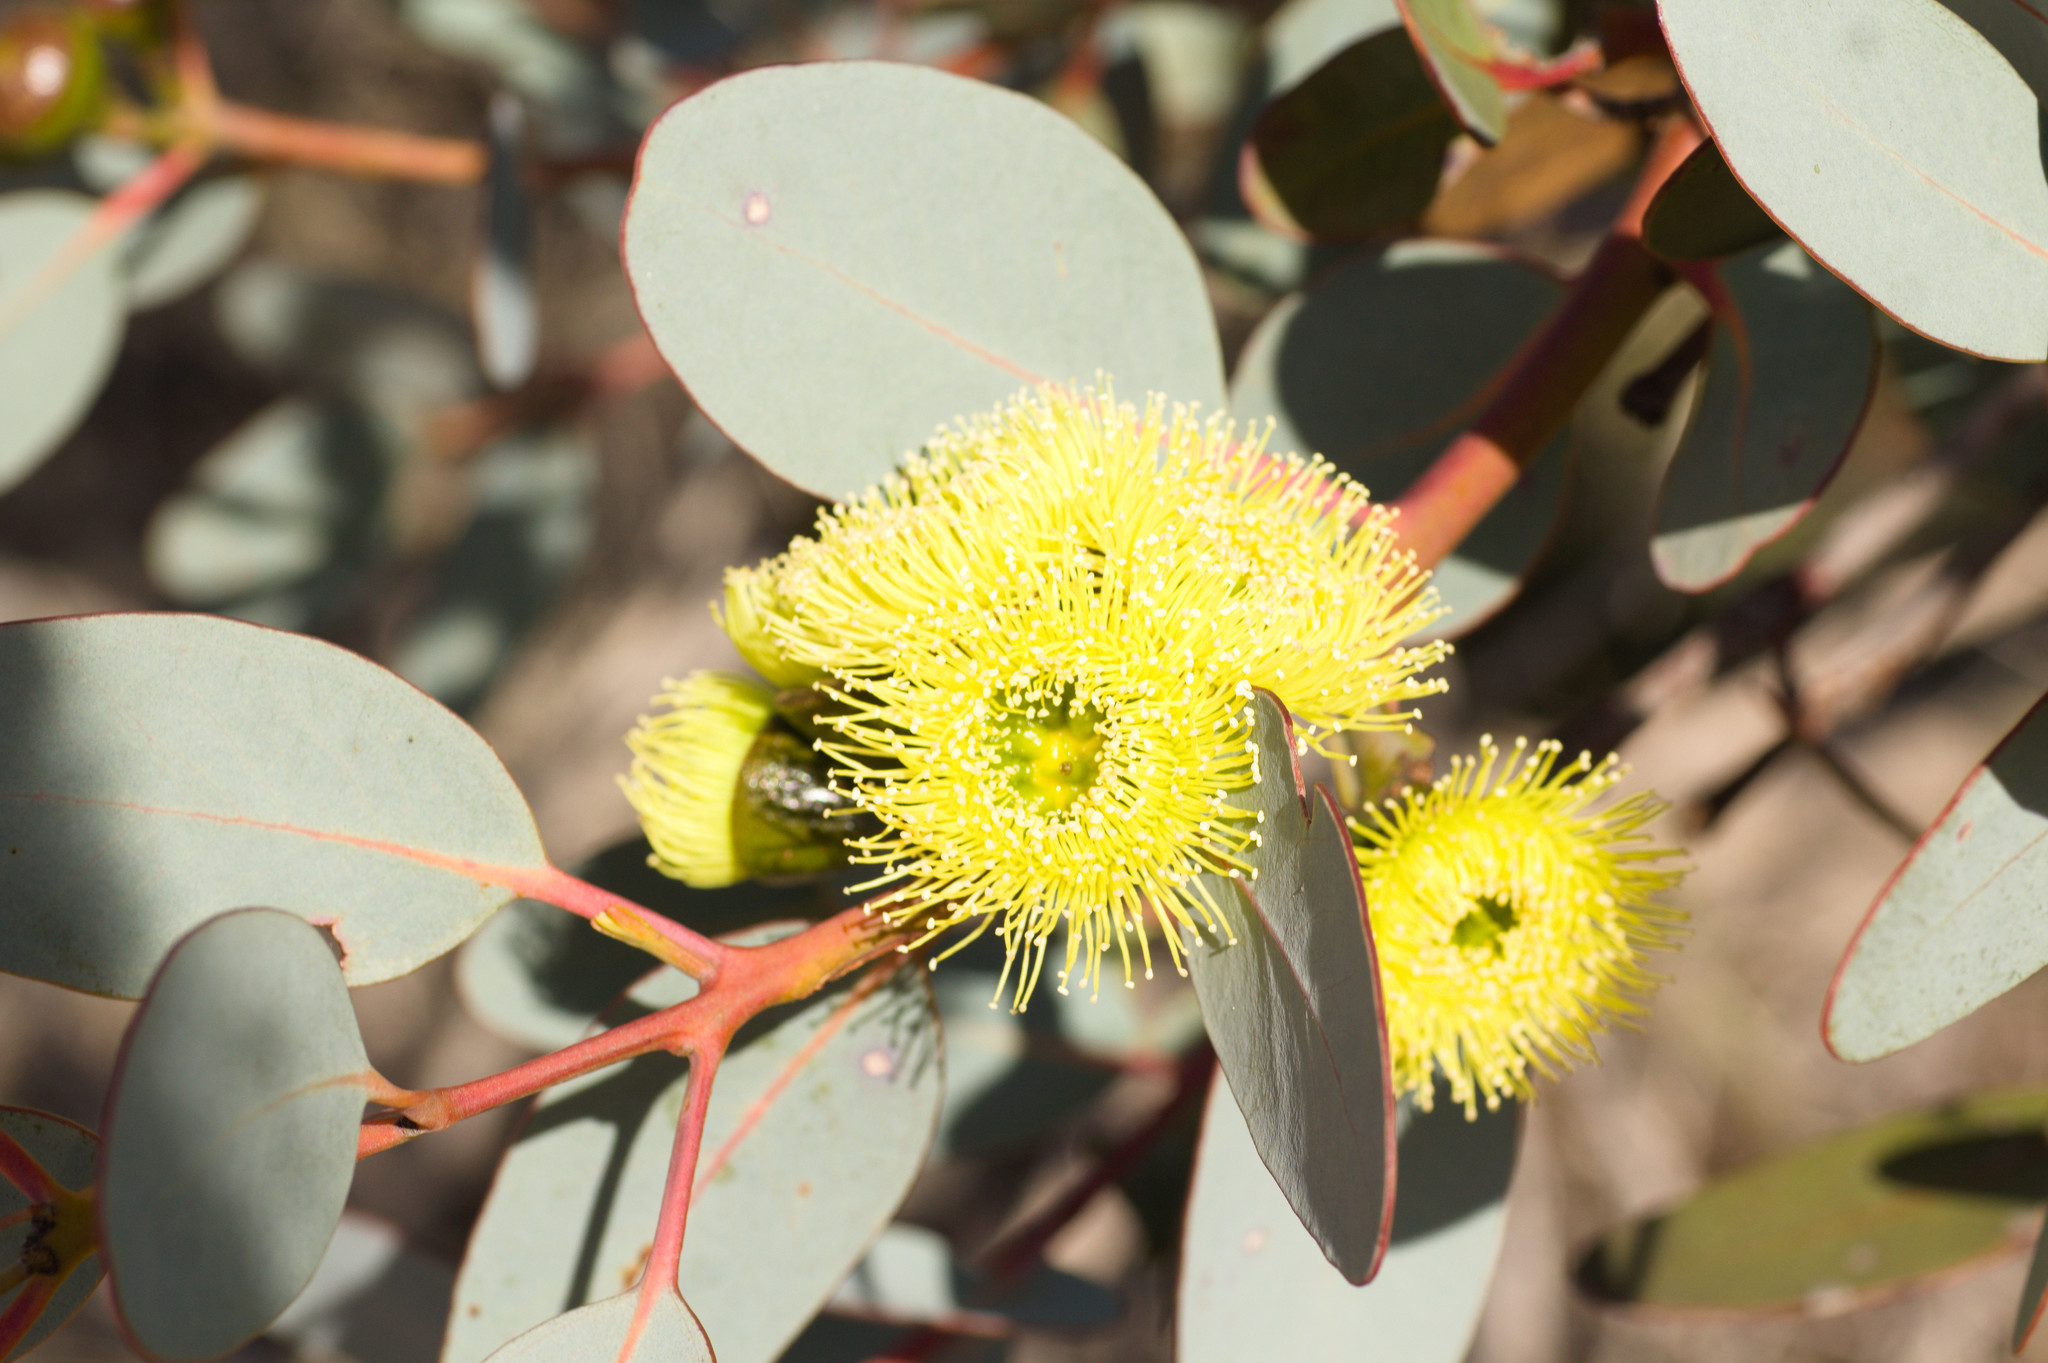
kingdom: Plantae
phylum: Tracheophyta
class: Magnoliopsida
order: Myrtales
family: Myrtaceae
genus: Eucalyptus
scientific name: Eucalyptus preissiana
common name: Stirling range mallee
